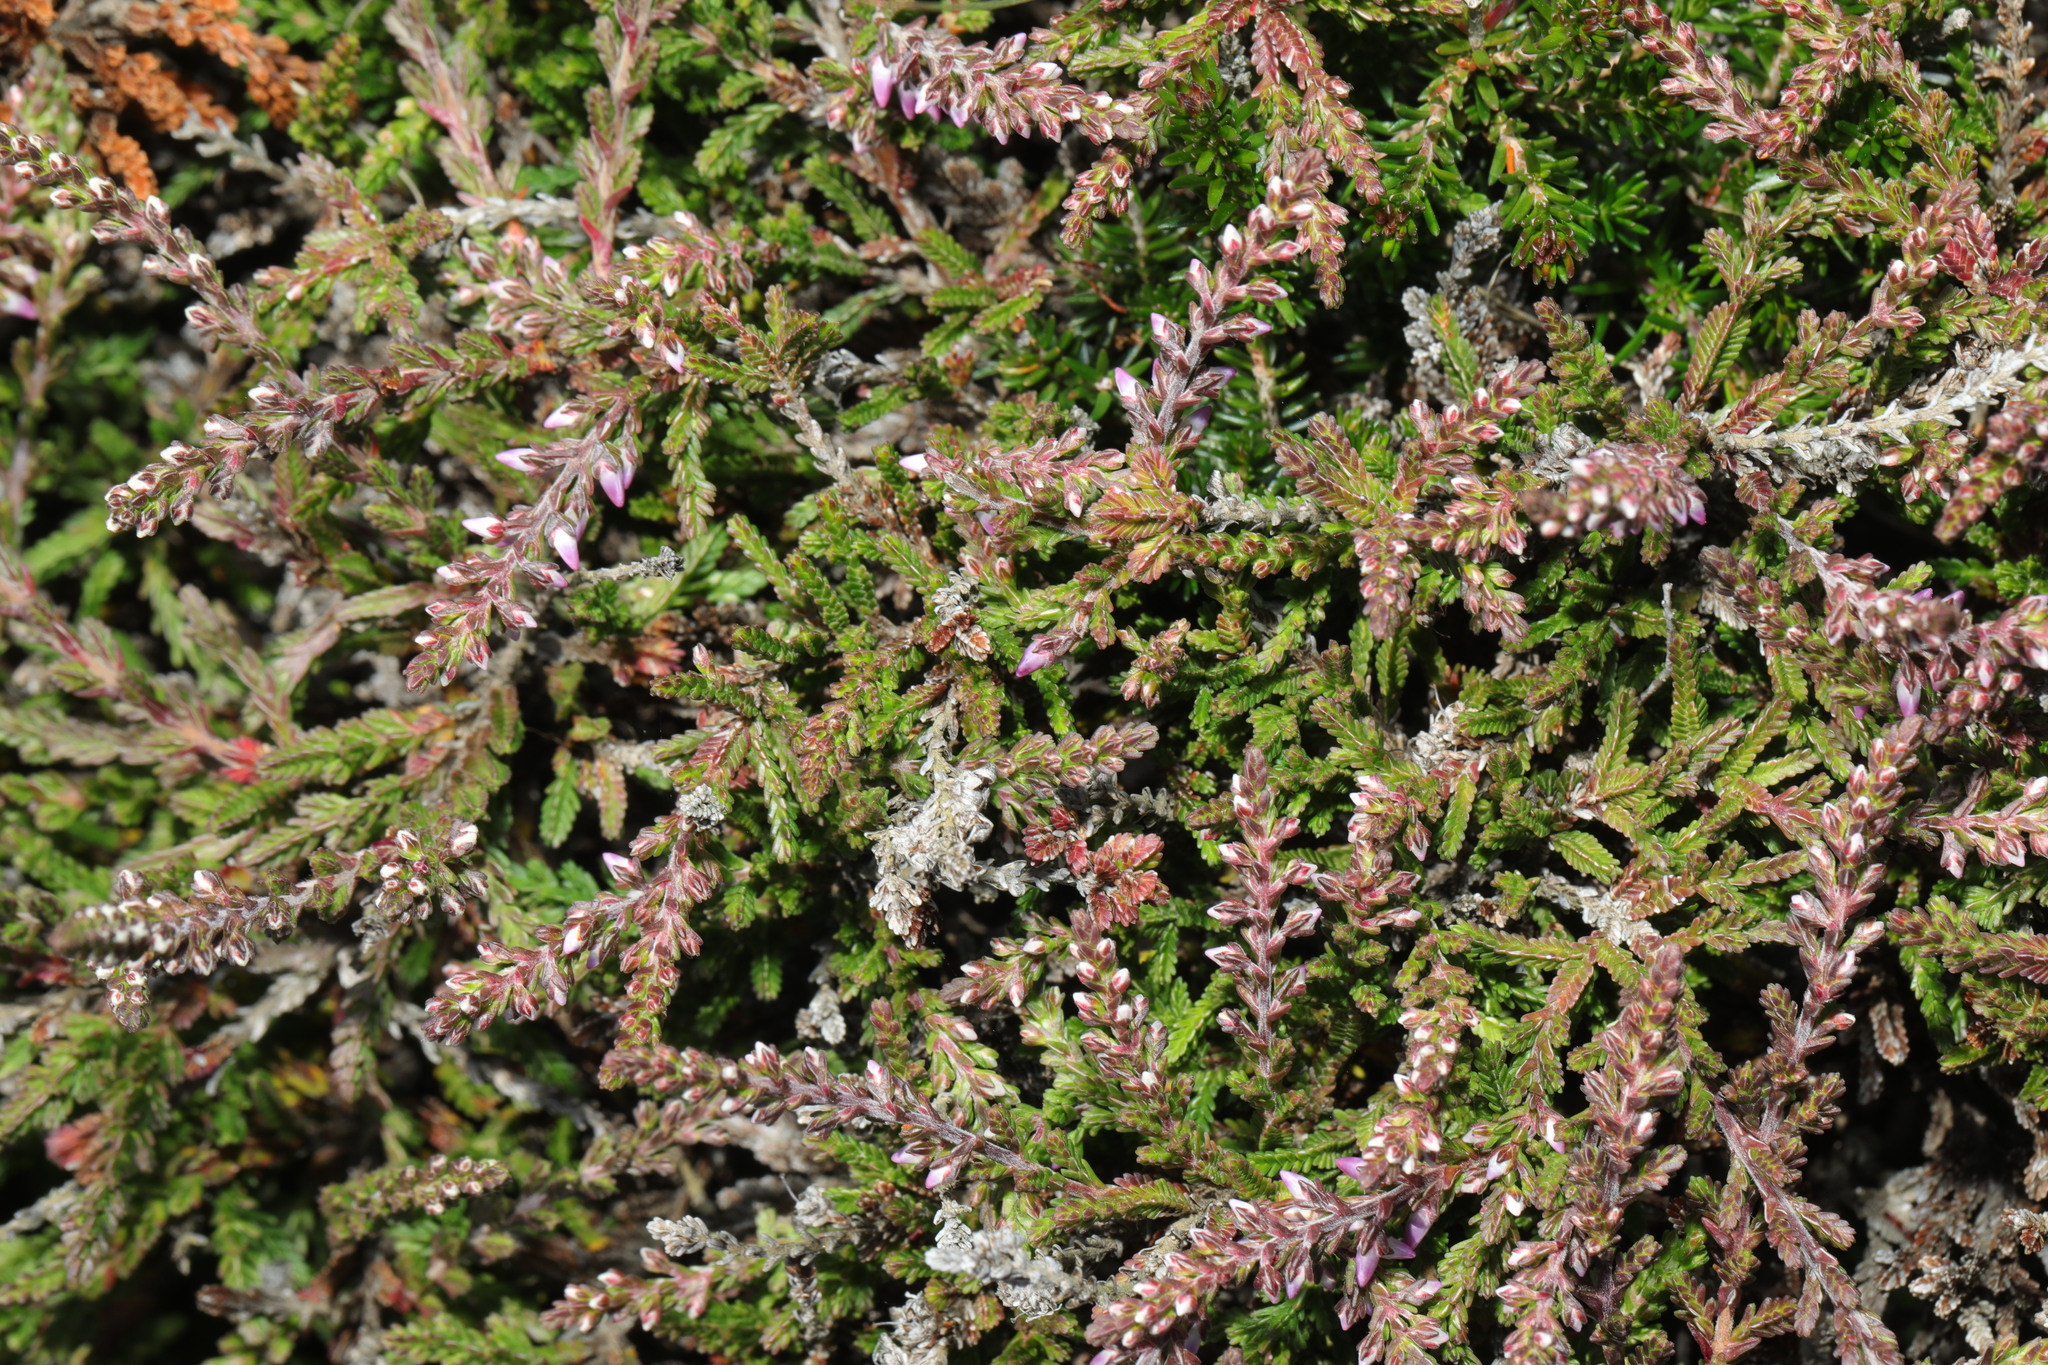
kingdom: Plantae
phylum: Tracheophyta
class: Magnoliopsida
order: Ericales
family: Ericaceae
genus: Calluna
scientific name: Calluna vulgaris
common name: Heather
